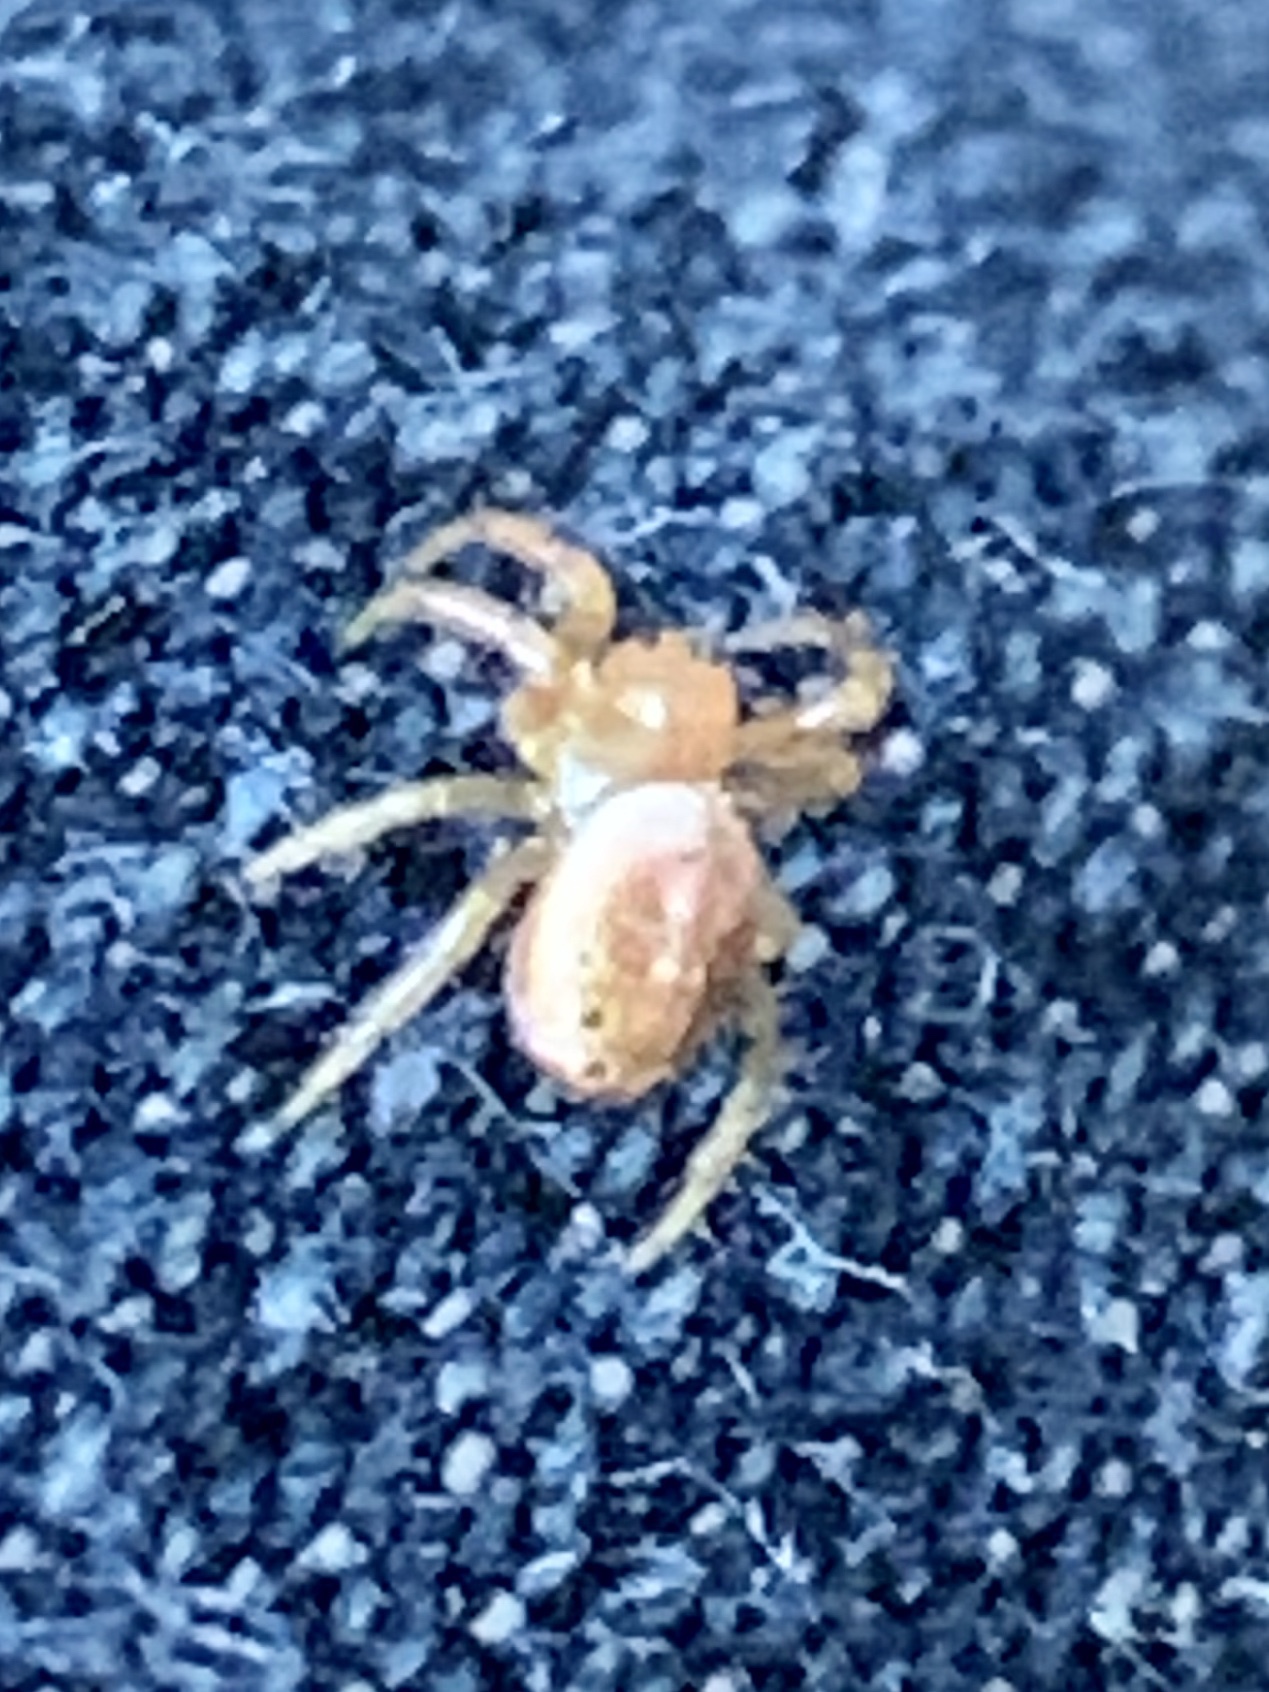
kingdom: Animalia
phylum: Arthropoda
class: Arachnida
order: Araneae
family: Araneidae
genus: Araniella
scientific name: Araniella displicata
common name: Sixspotted orb weaver
